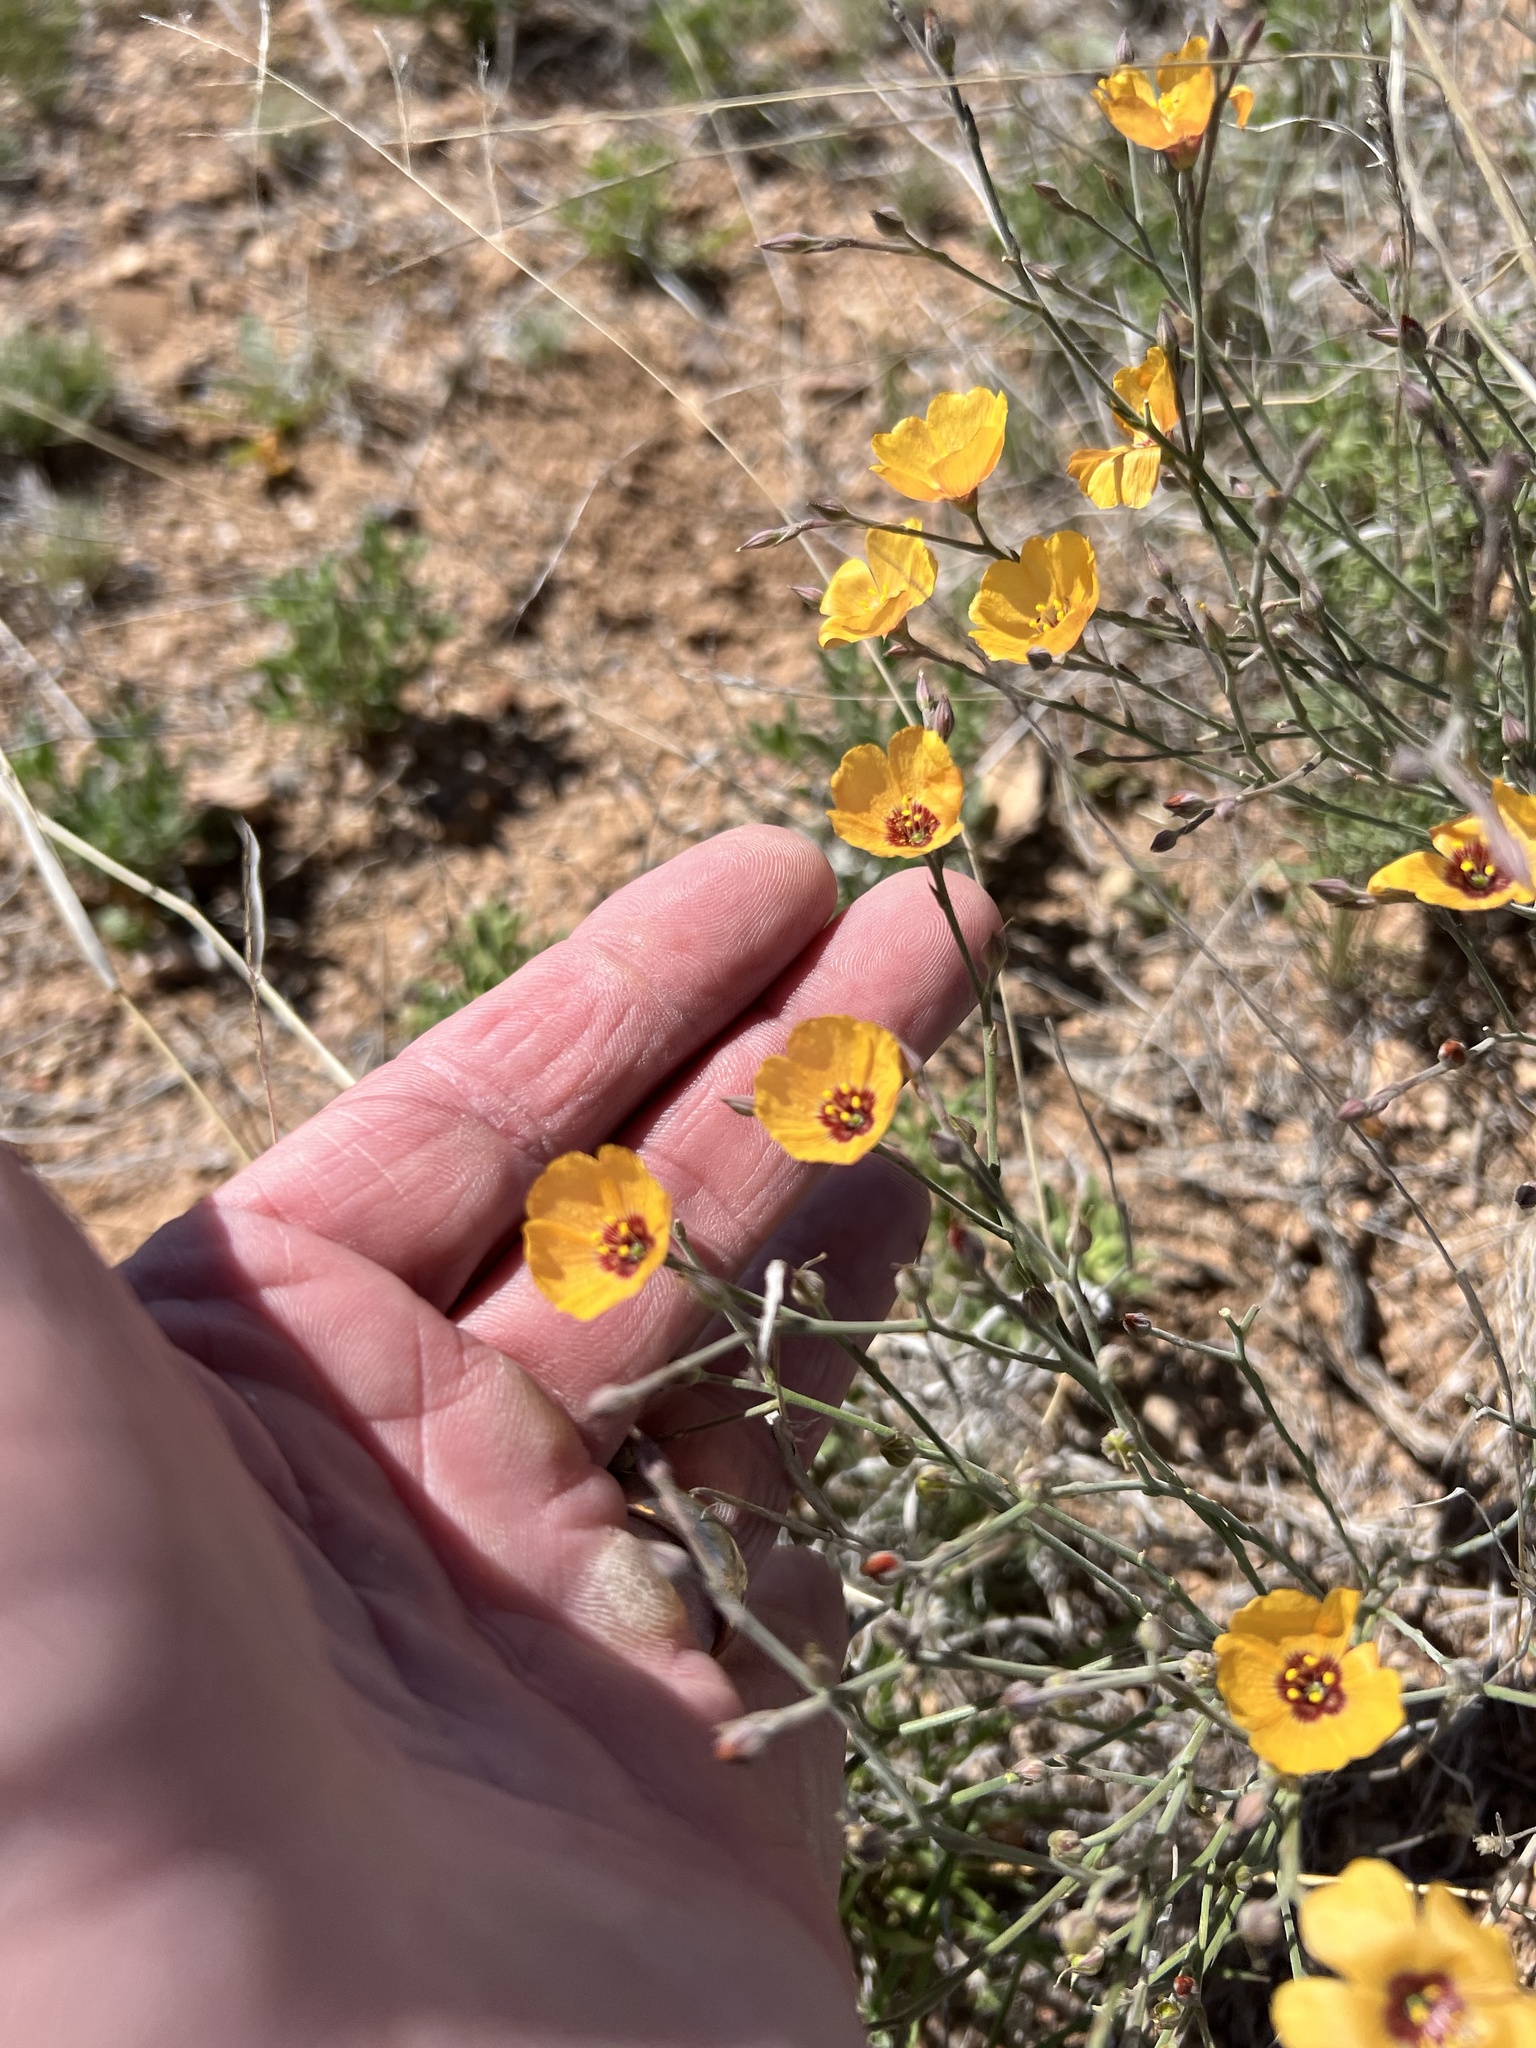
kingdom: Plantae
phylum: Tracheophyta
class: Magnoliopsida
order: Malpighiales
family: Linaceae
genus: Linum
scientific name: Linum puberulum
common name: Plains flax
